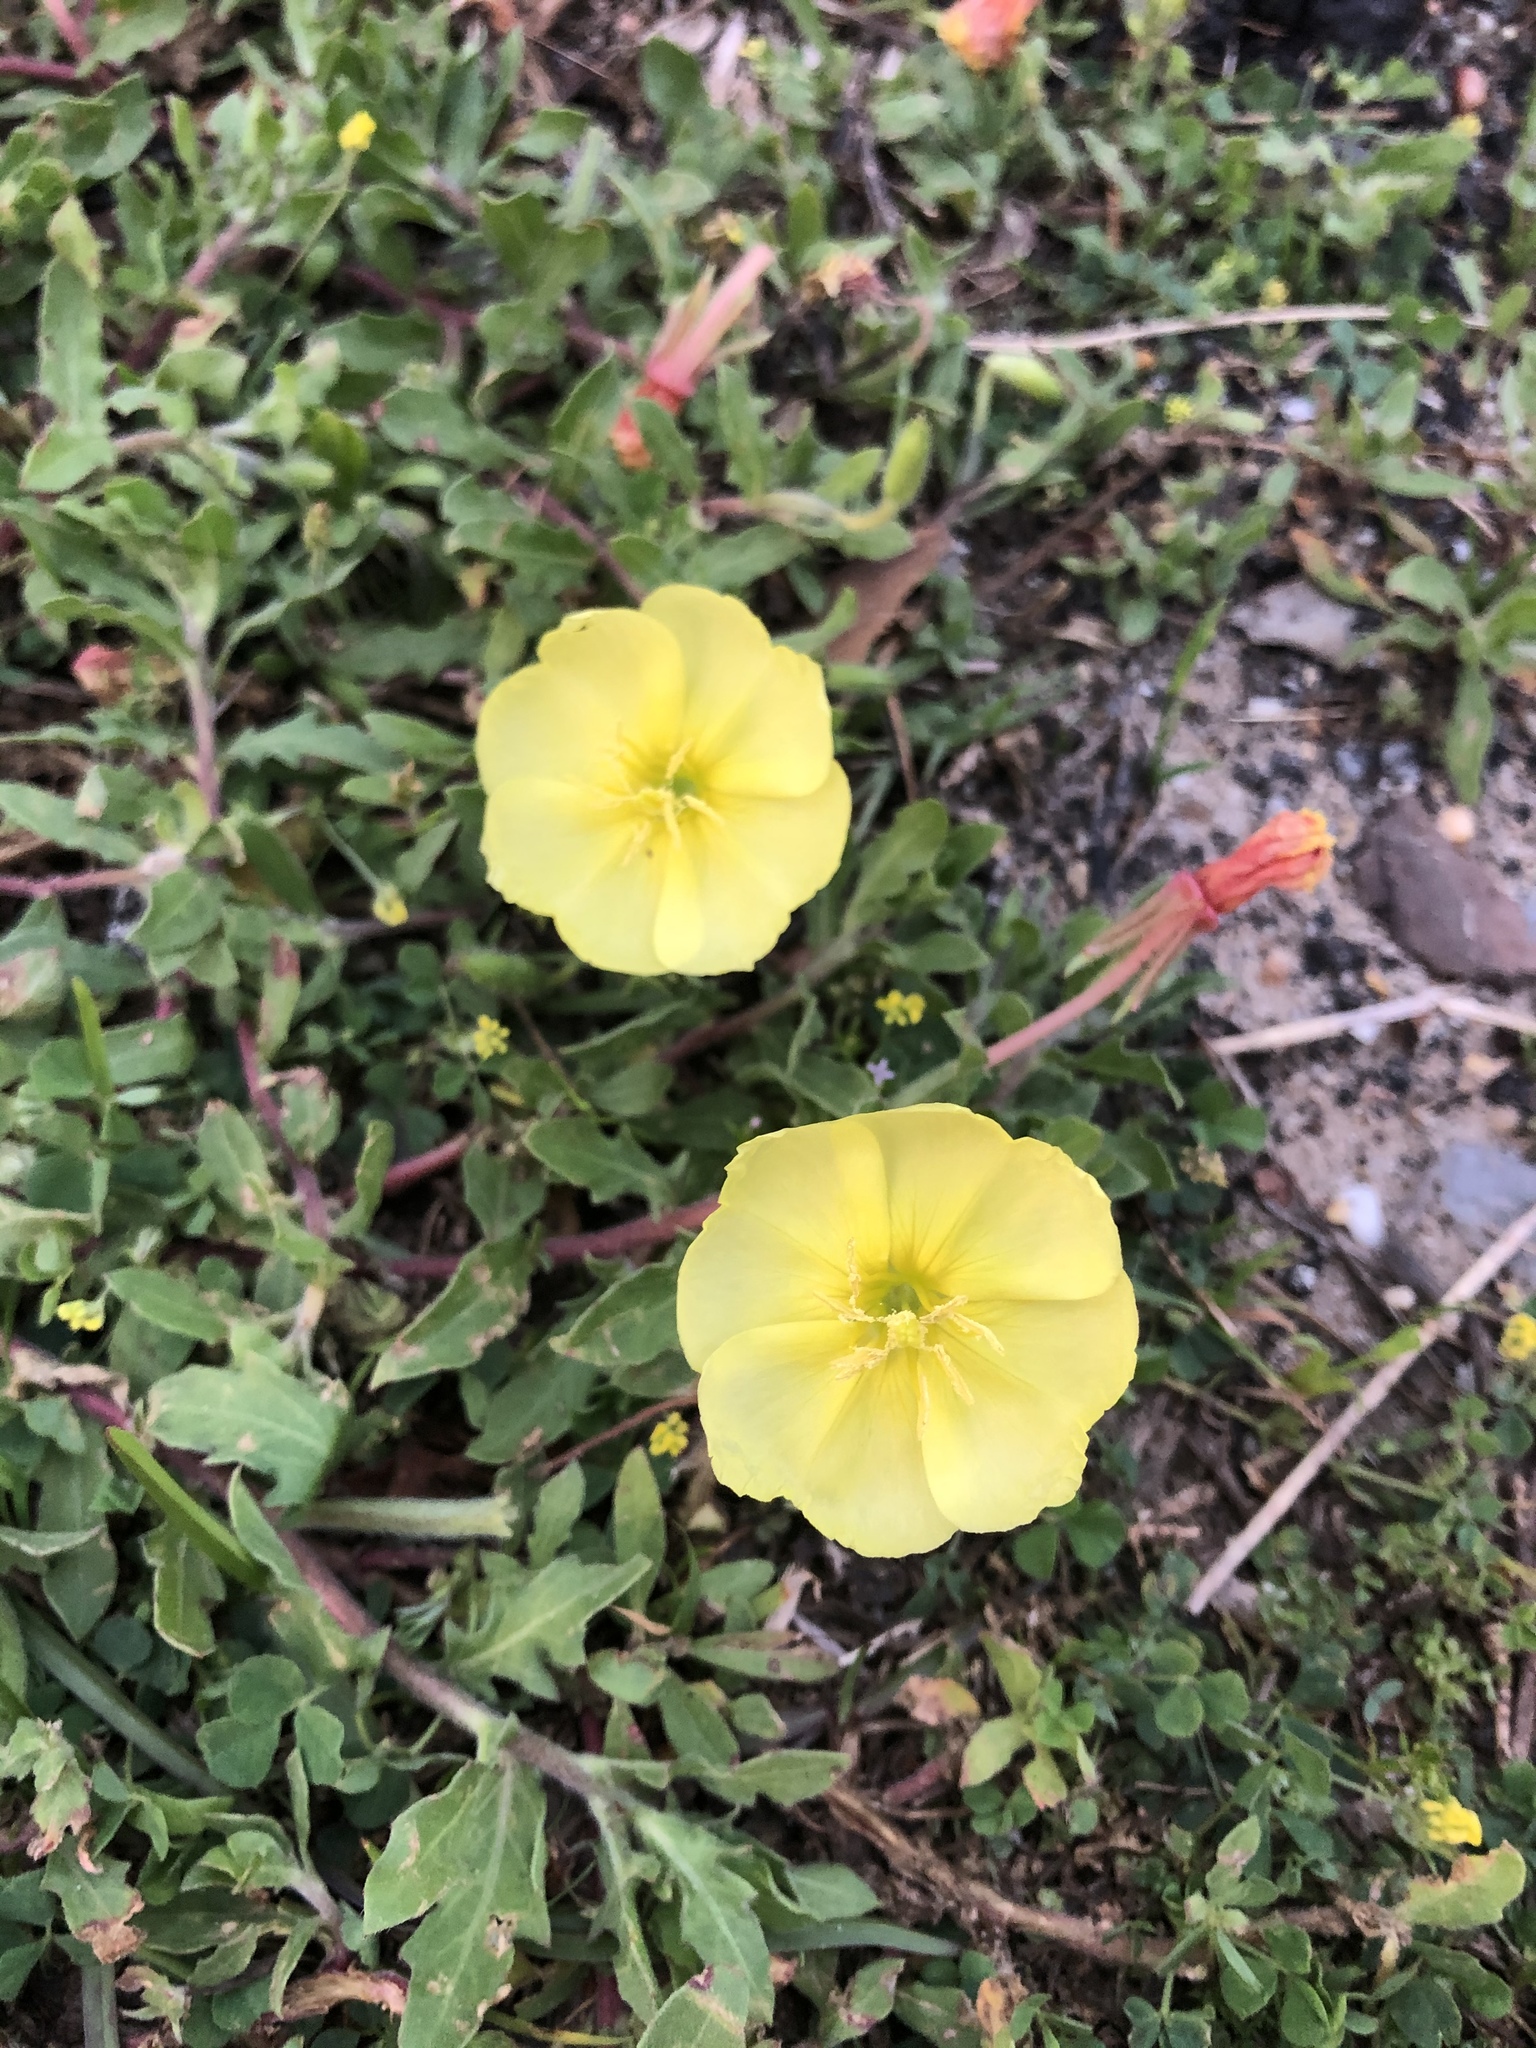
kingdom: Plantae
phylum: Tracheophyta
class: Magnoliopsida
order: Myrtales
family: Onagraceae
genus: Oenothera
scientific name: Oenothera laciniata
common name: Cut-leaved evening-primrose
